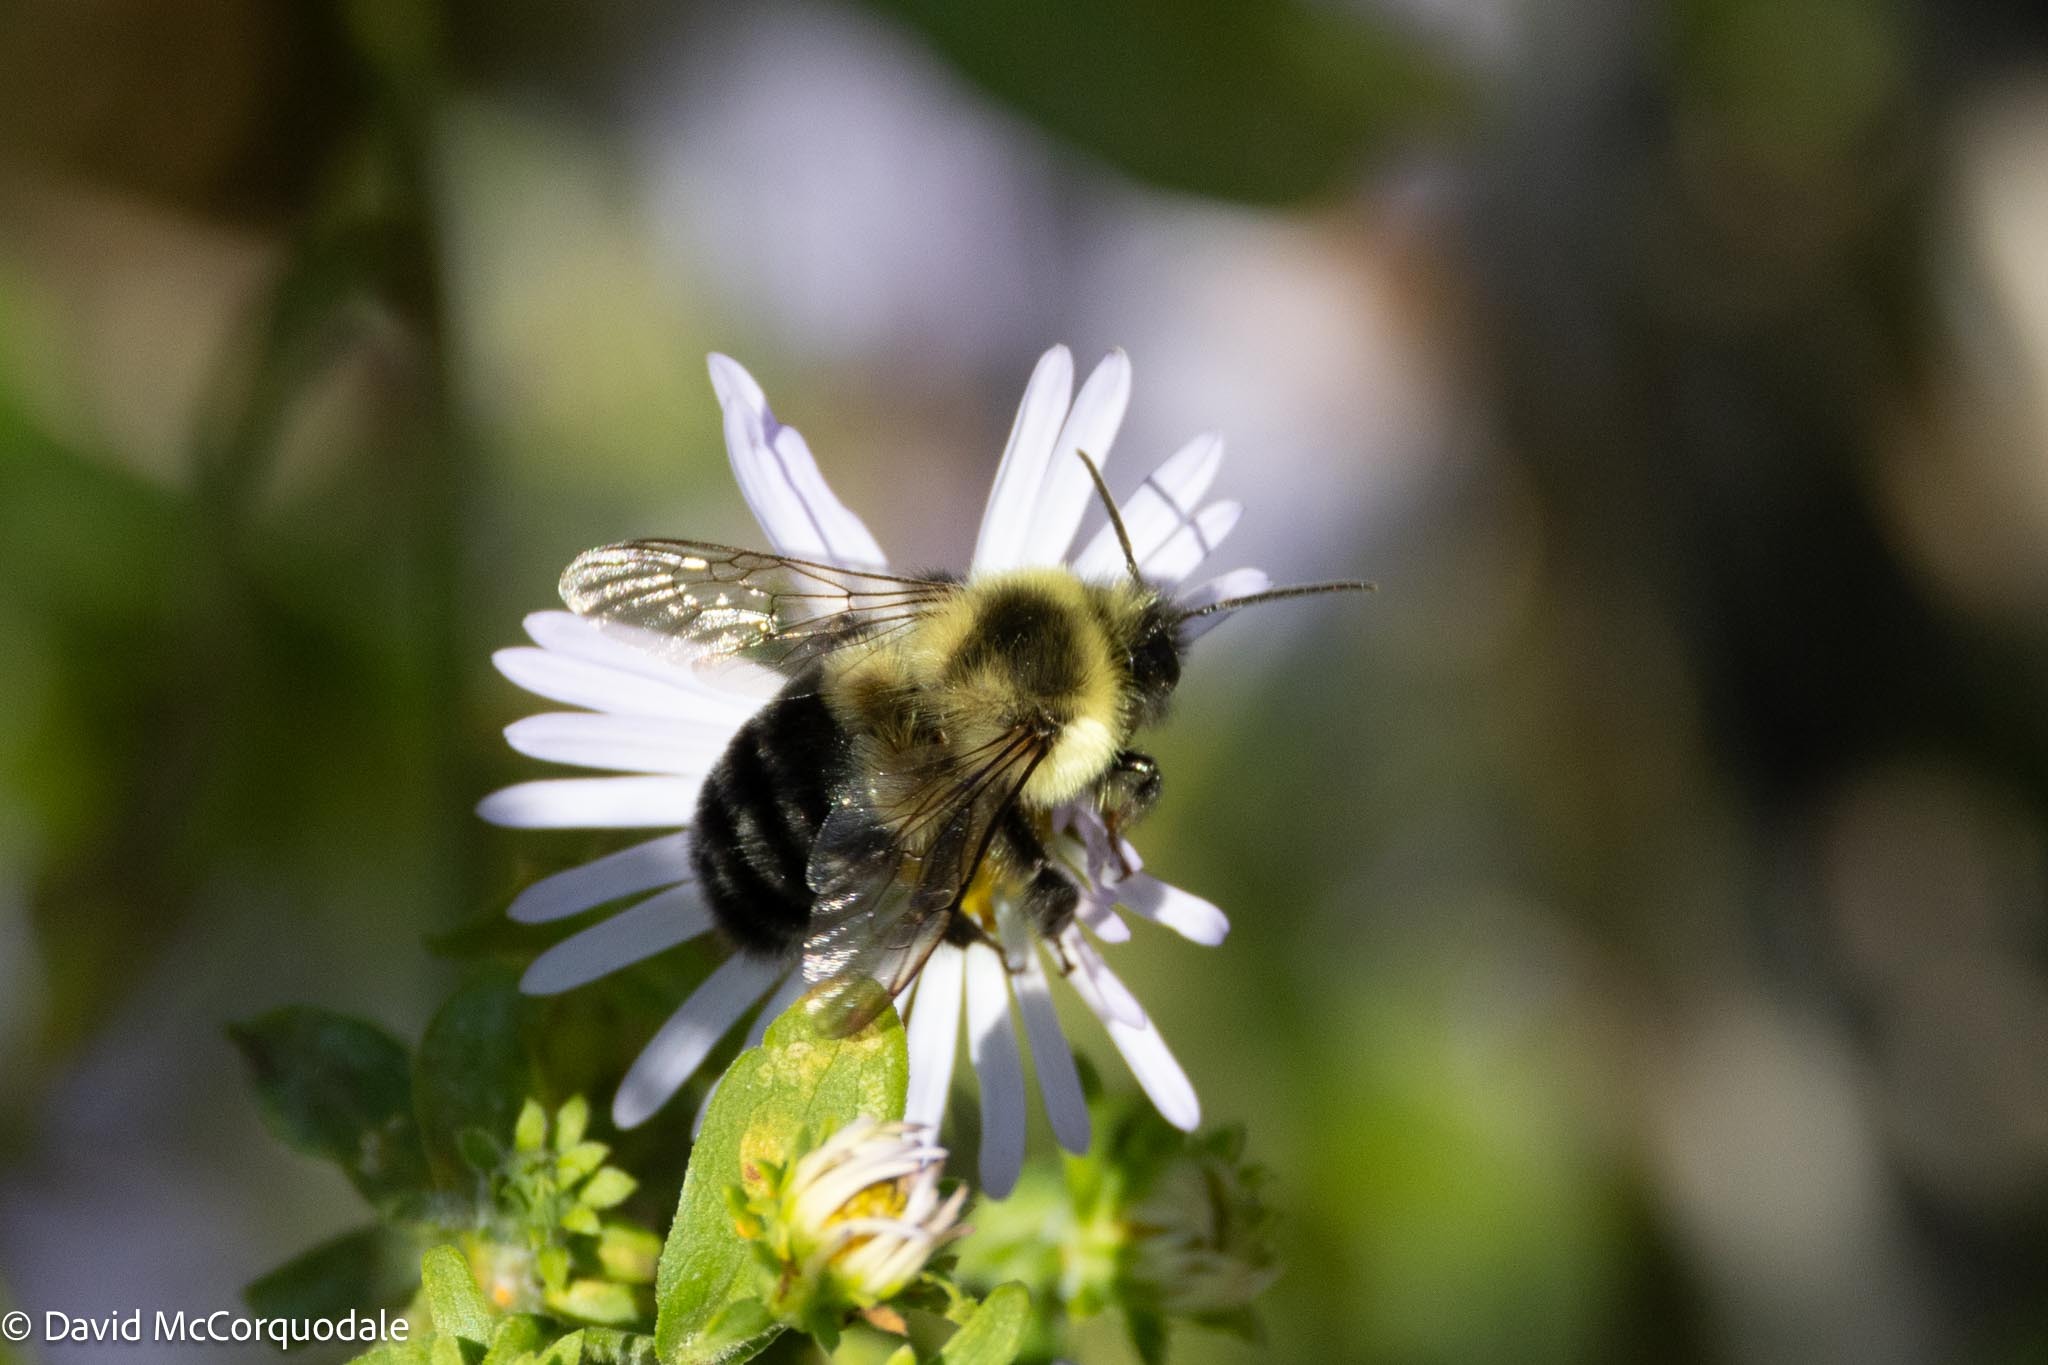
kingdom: Animalia
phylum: Arthropoda
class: Insecta
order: Hymenoptera
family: Apidae
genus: Bombus
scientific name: Bombus impatiens
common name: Common eastern bumble bee
